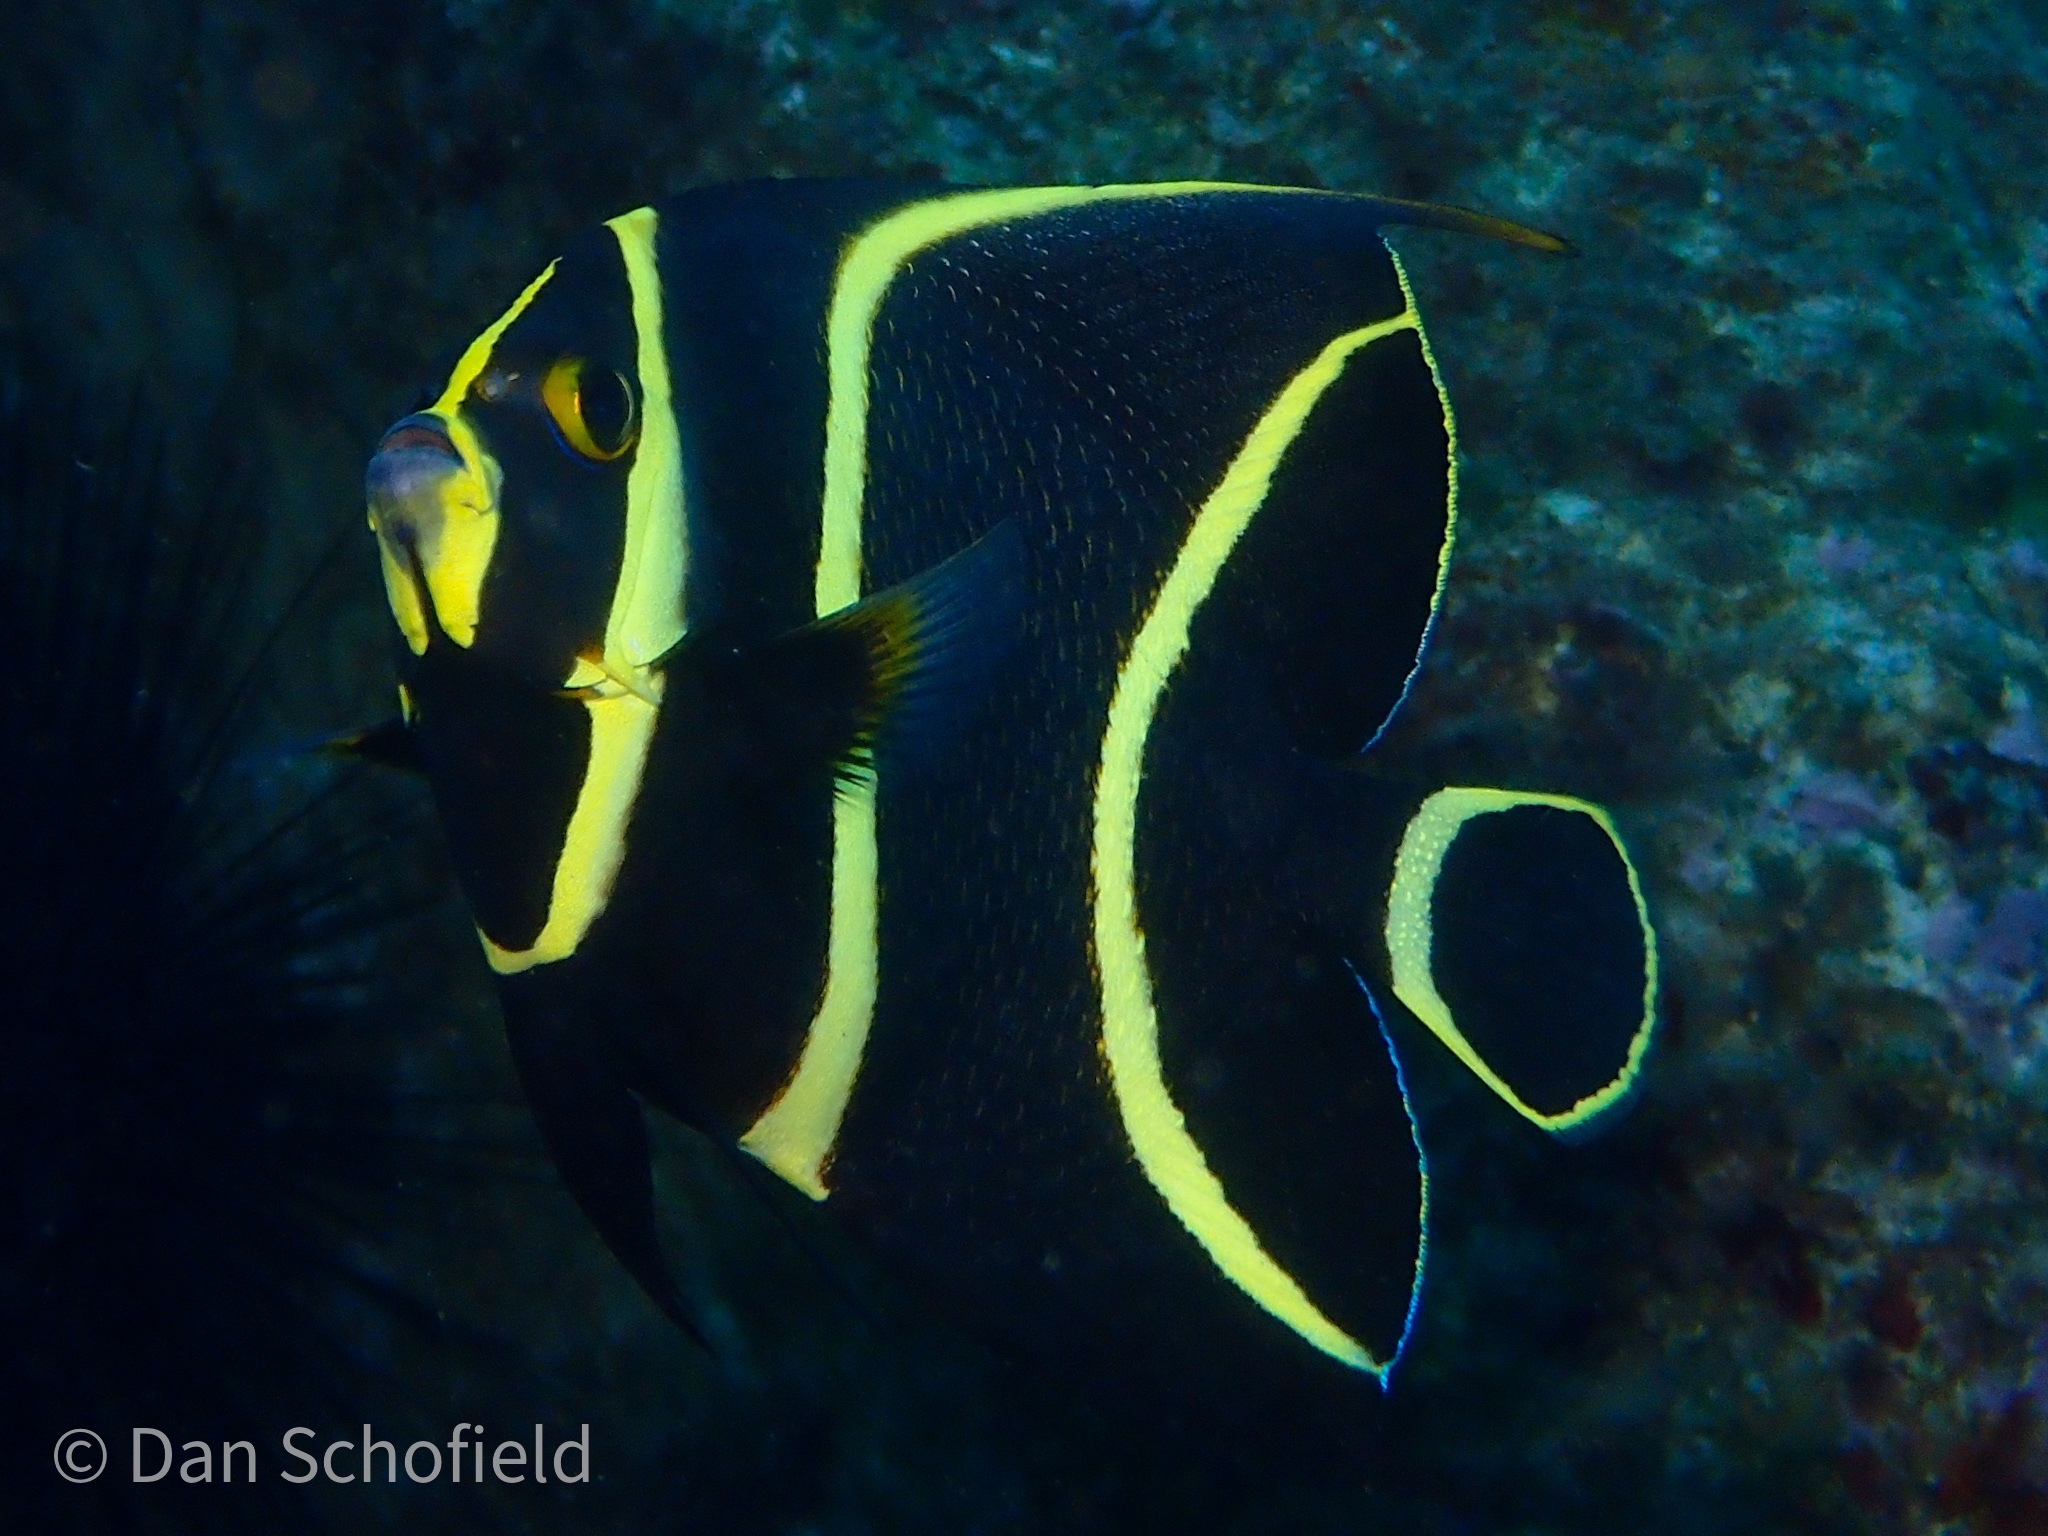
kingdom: Animalia
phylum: Chordata
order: Perciformes
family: Pomacanthidae
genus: Pomacanthus
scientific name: Pomacanthus paru
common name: French angelfish
